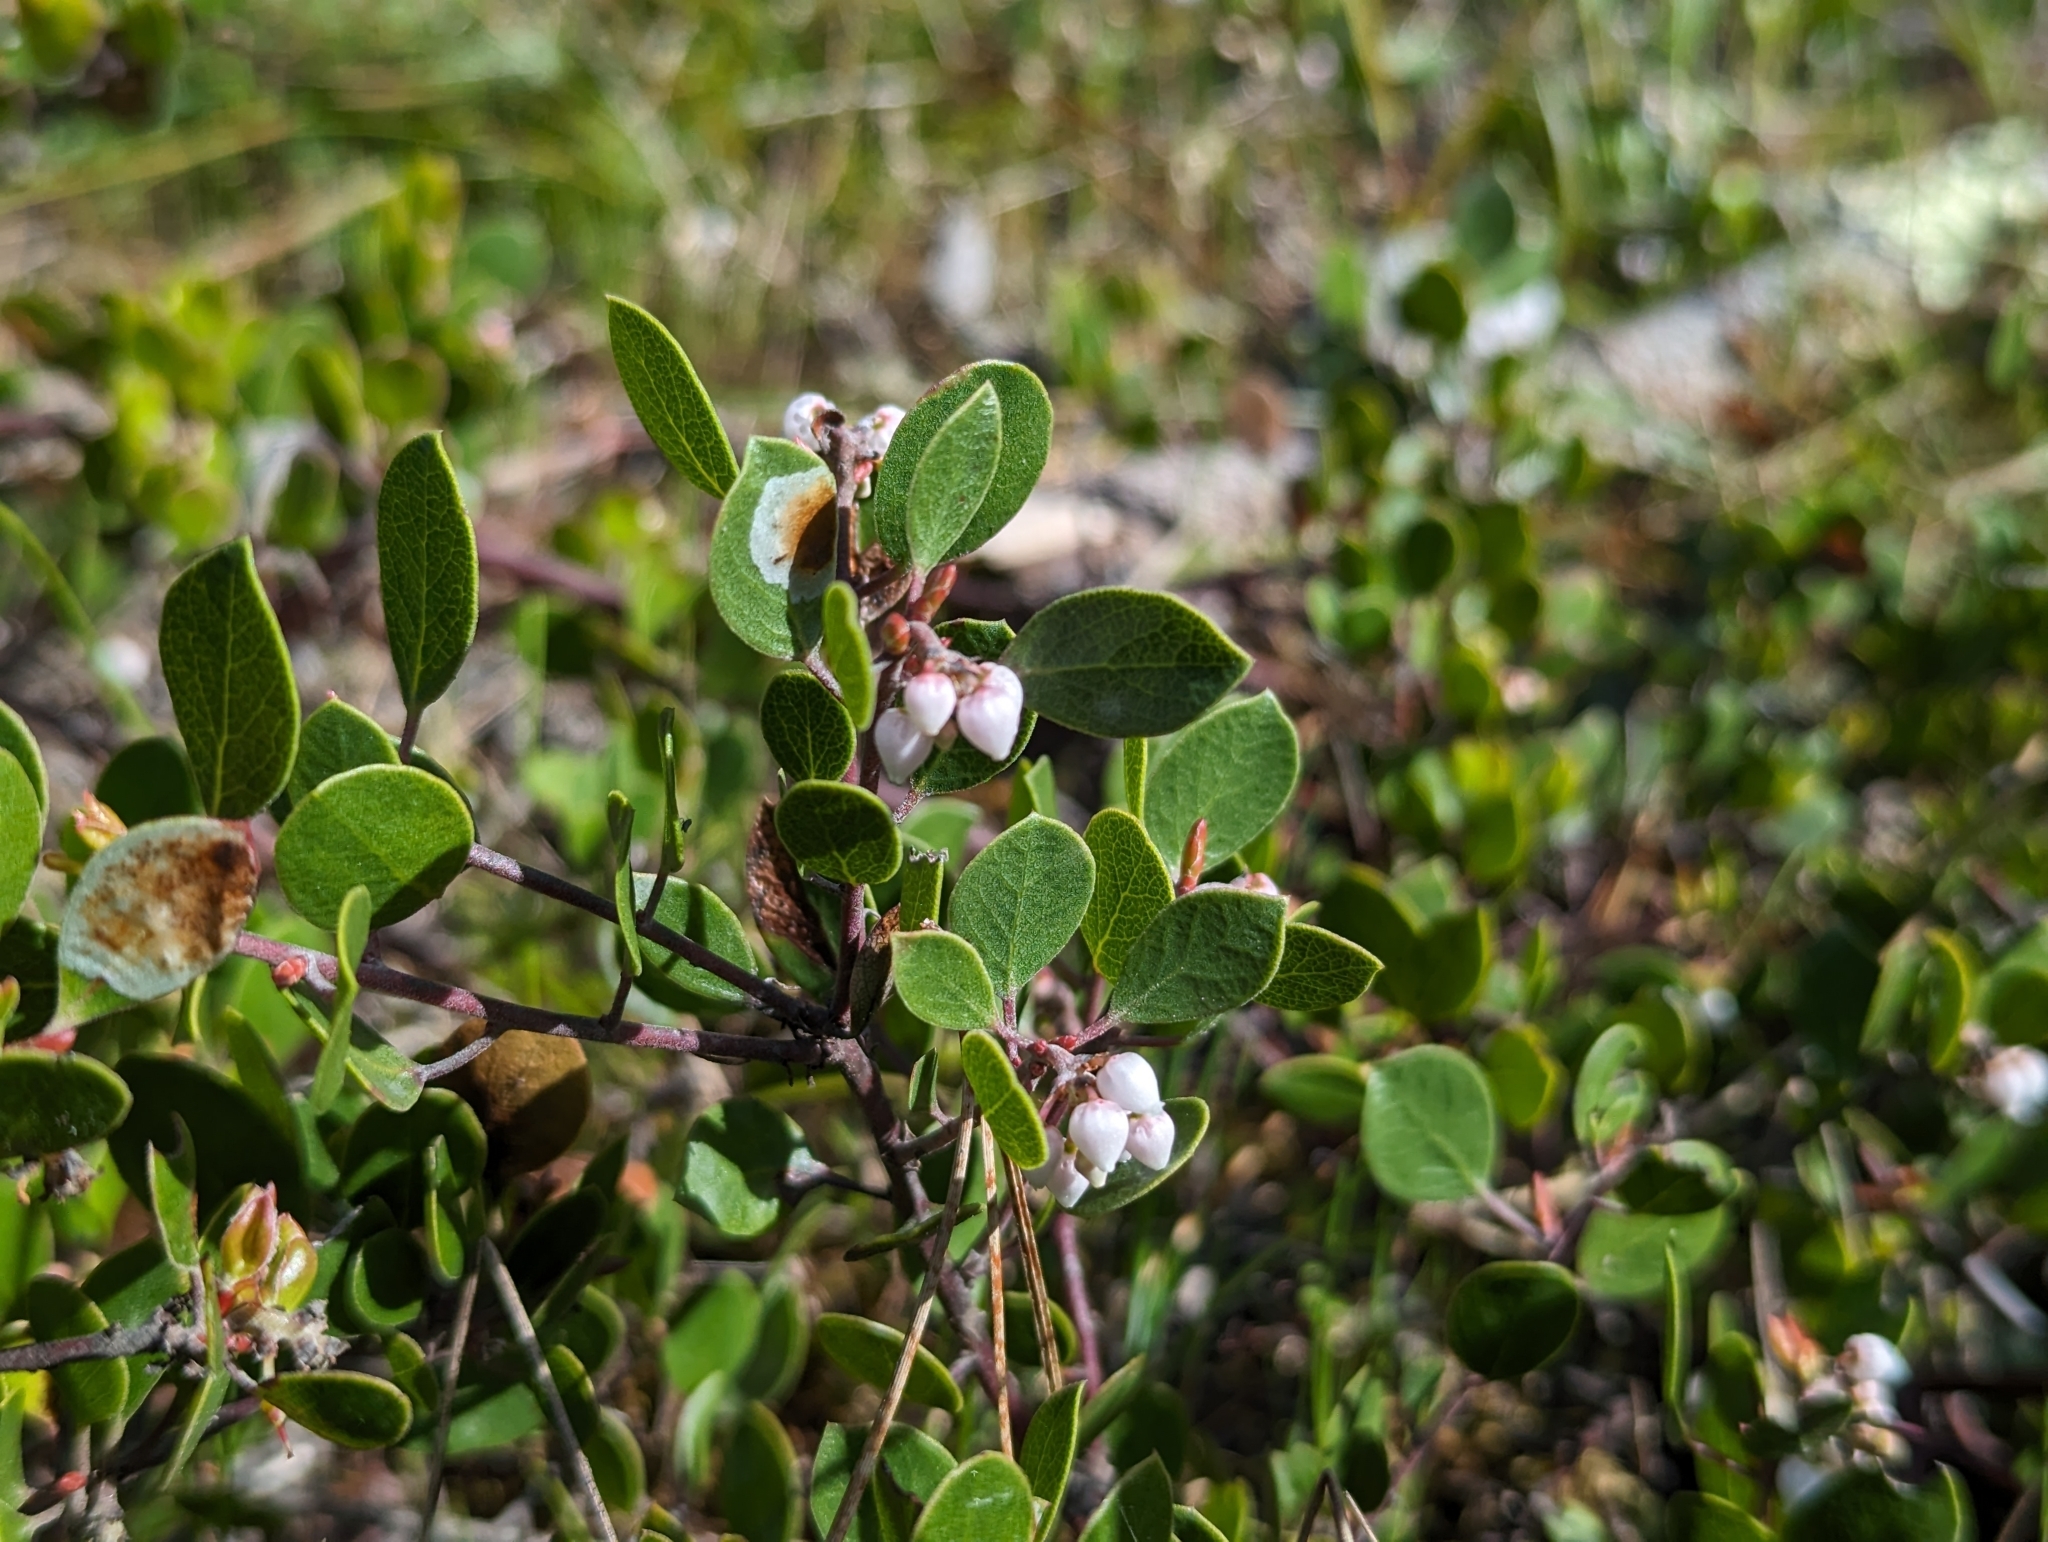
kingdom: Plantae
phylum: Tracheophyta
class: Magnoliopsida
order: Ericales
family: Ericaceae
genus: Arctostaphylos
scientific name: Arctostaphylos hookeri
